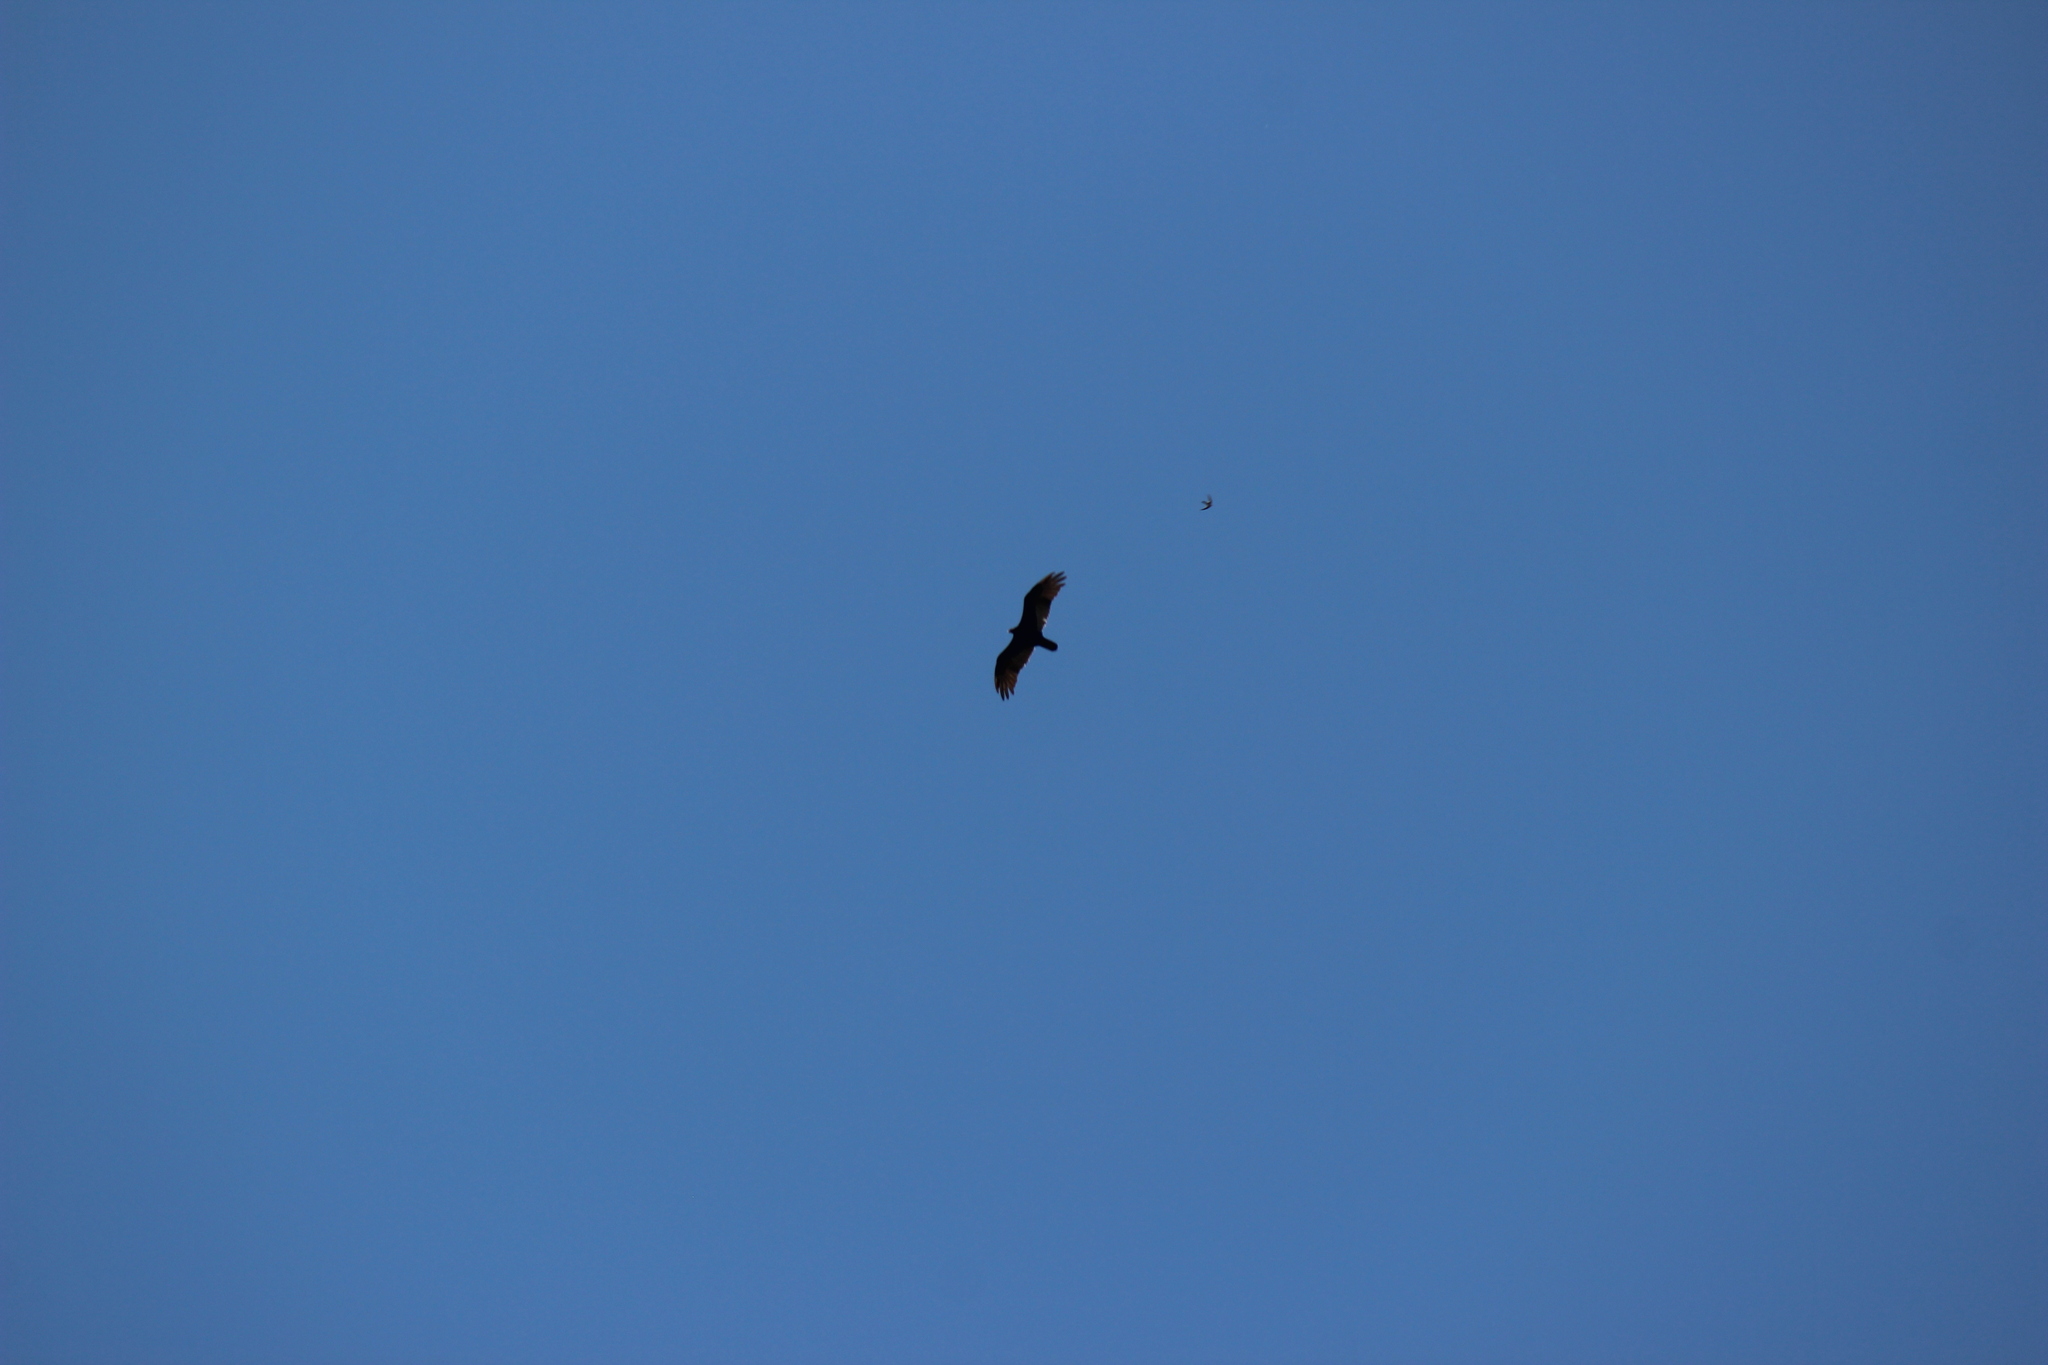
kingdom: Animalia
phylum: Chordata
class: Aves
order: Accipitriformes
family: Cathartidae
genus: Cathartes
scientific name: Cathartes aura
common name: Turkey vulture
